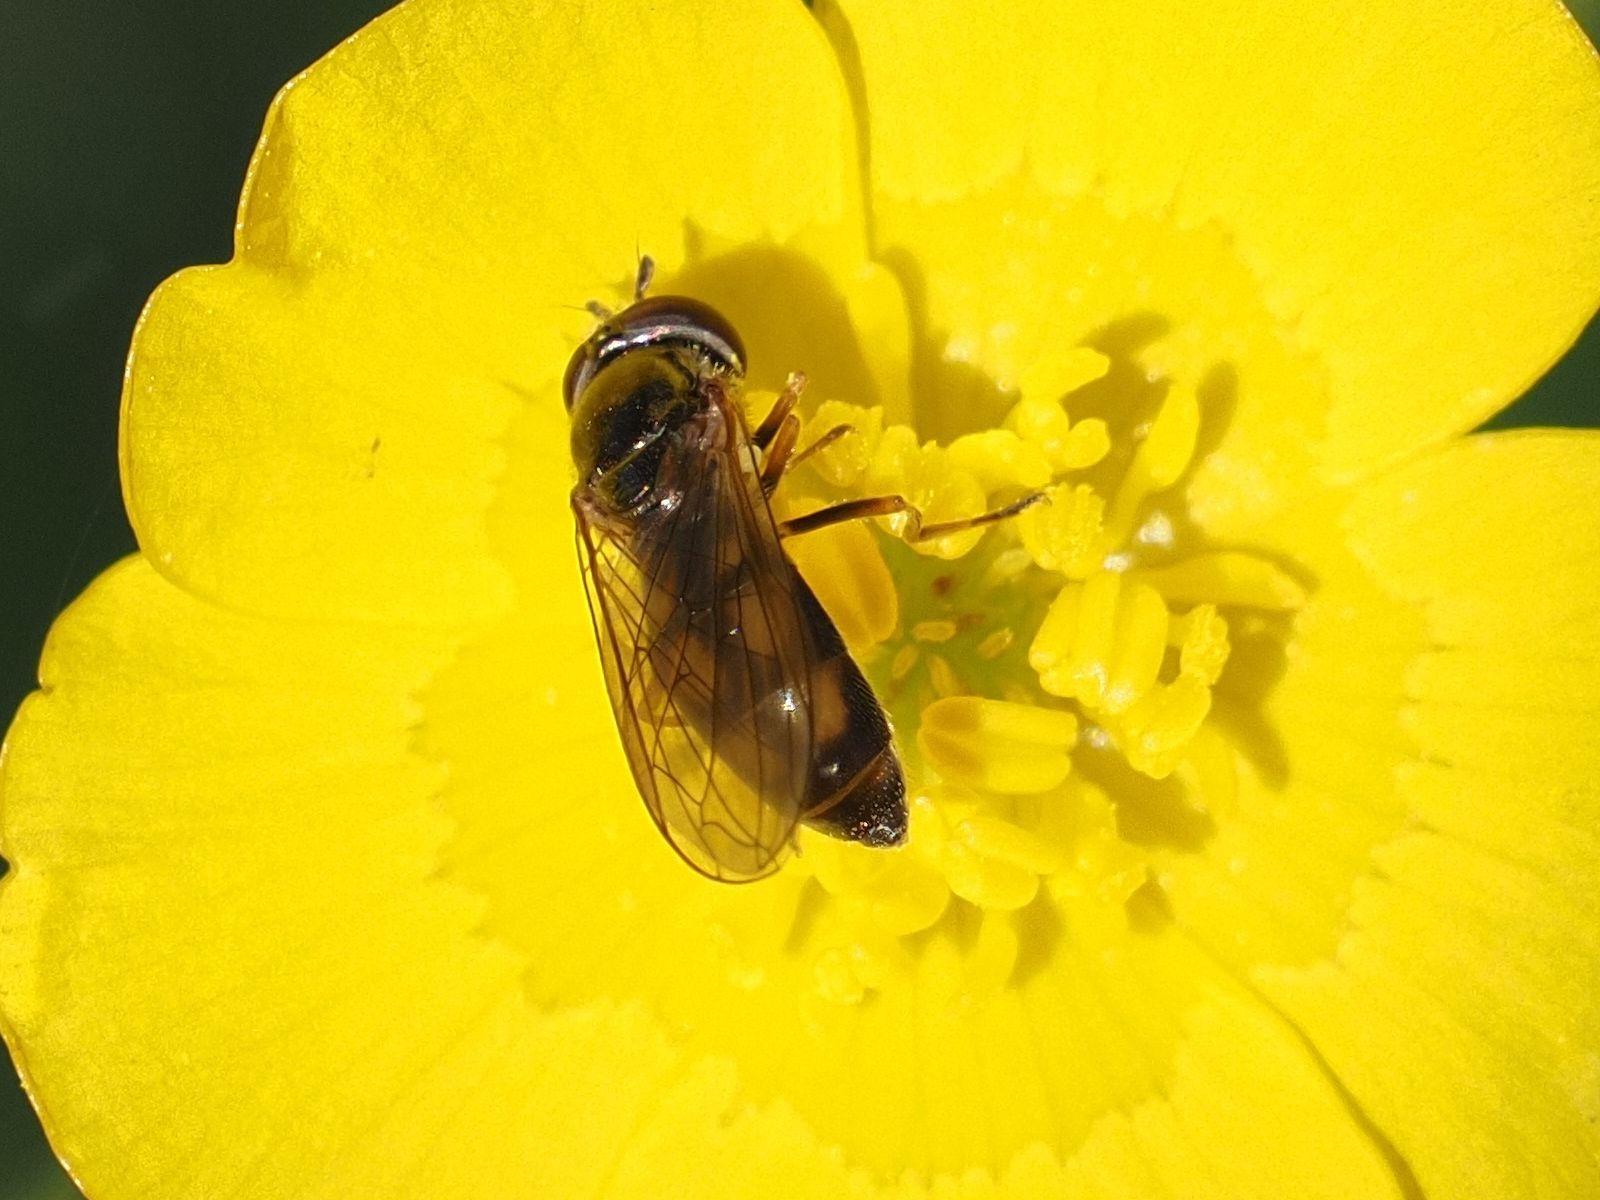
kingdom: Animalia
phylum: Arthropoda
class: Insecta
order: Diptera
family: Syrphidae
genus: Melanostoma
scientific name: Melanostoma scalare
